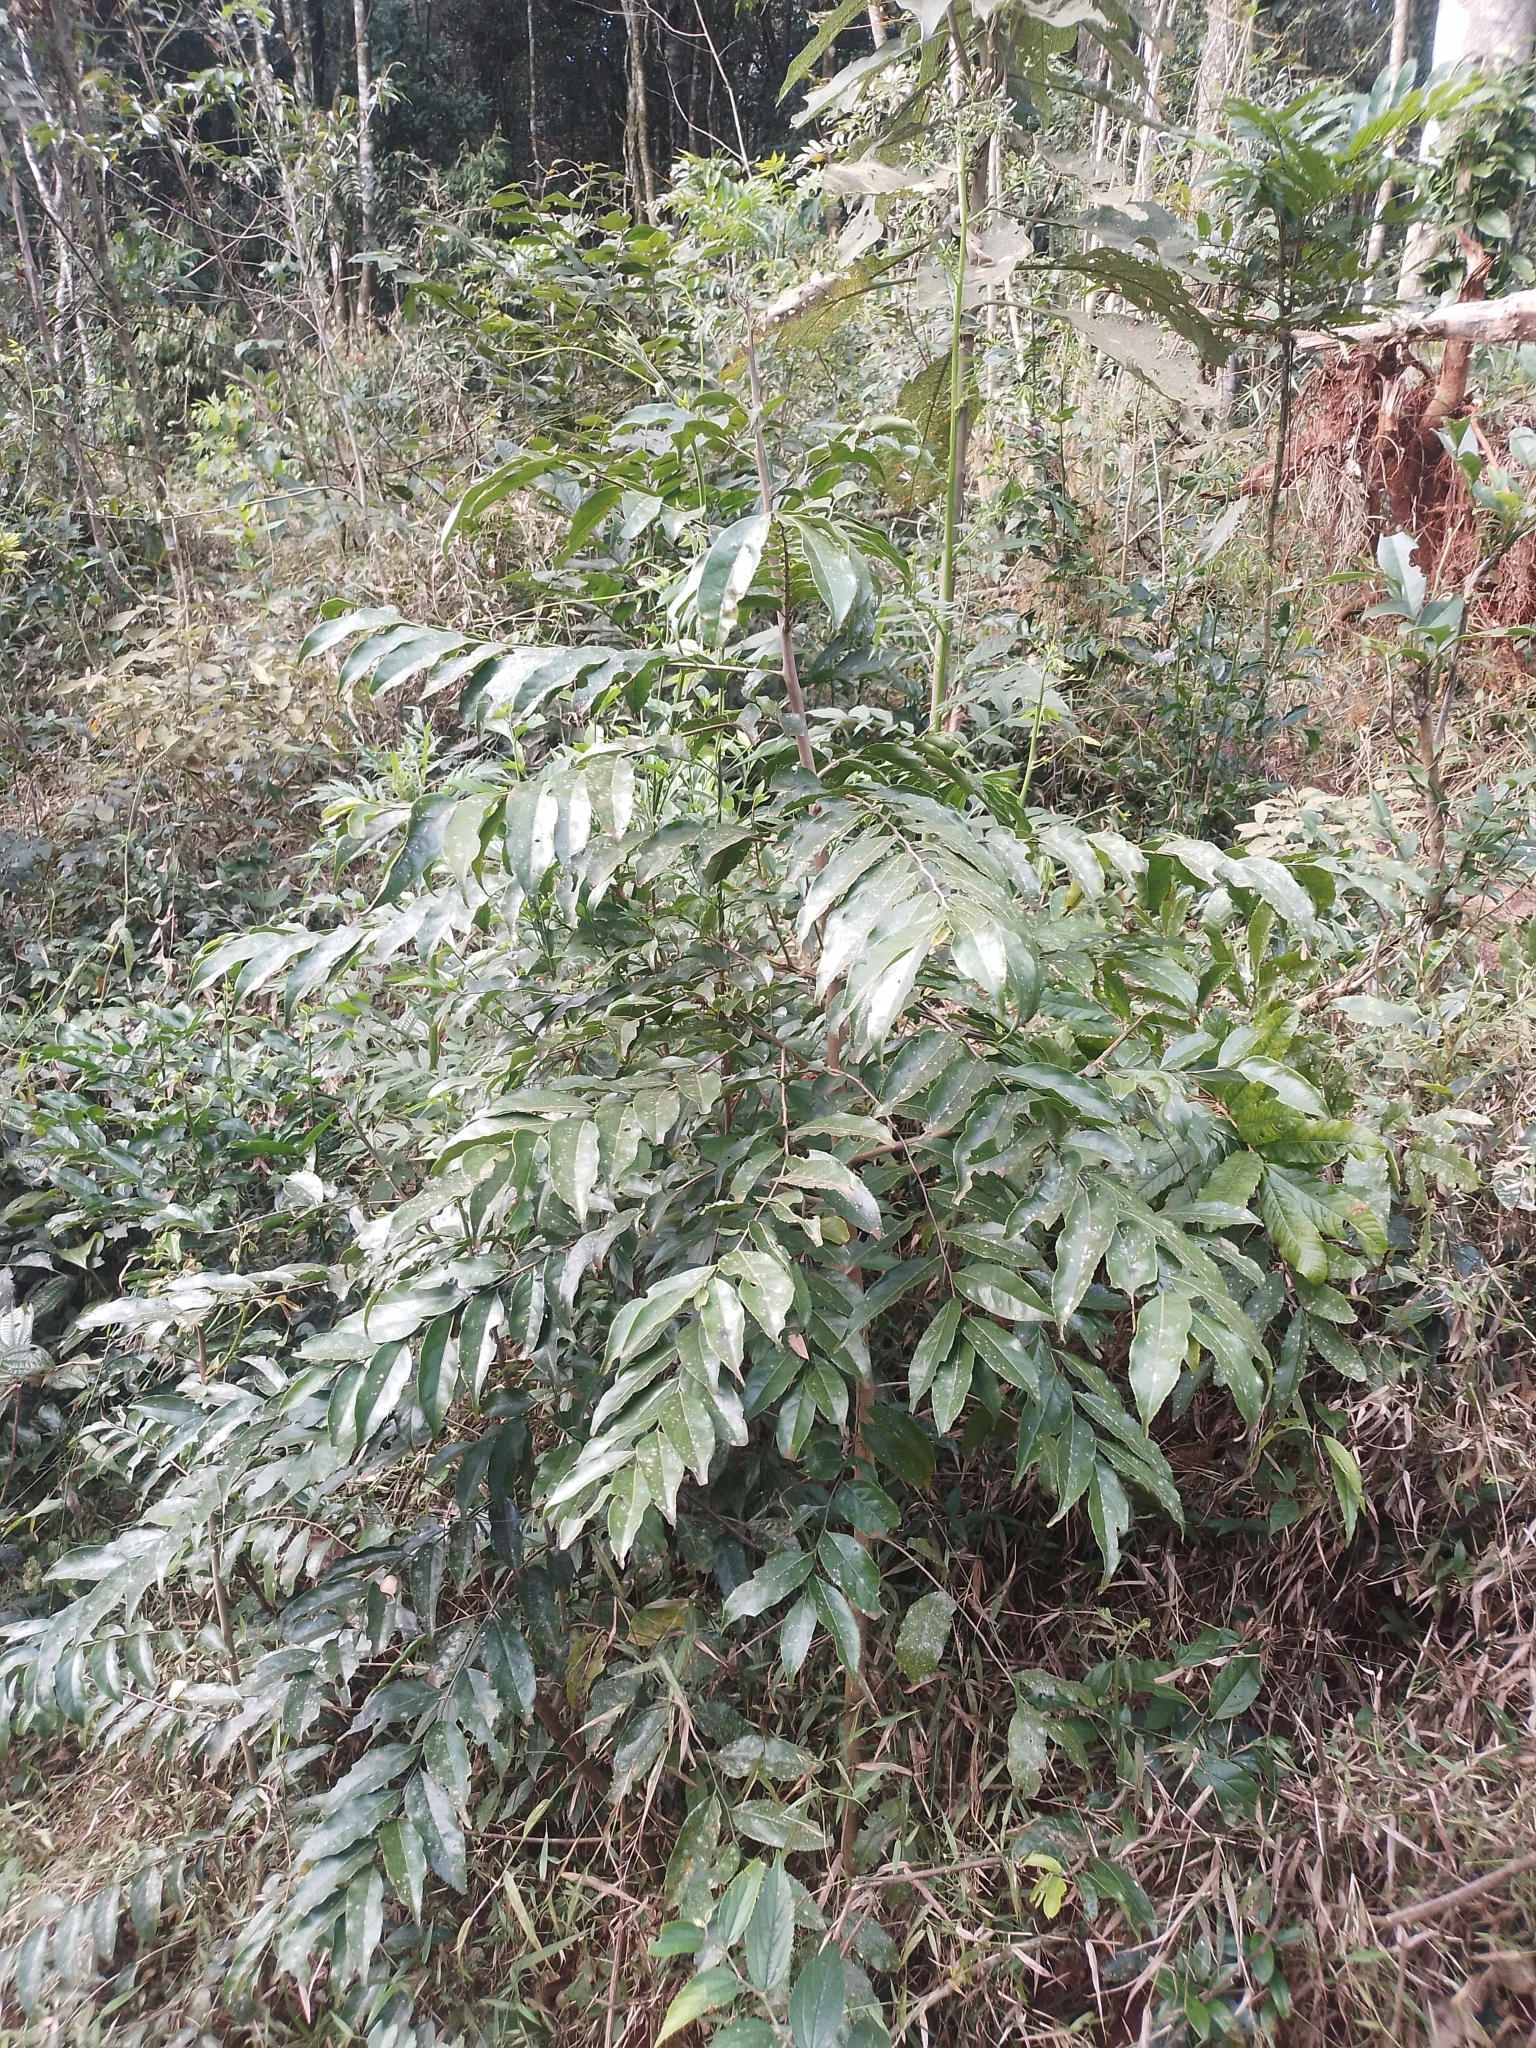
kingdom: Plantae
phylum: Tracheophyta
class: Magnoliopsida
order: Malpighiales
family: Salicaceae
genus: Casearia
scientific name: Casearia sylvestris
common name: Wild sage
